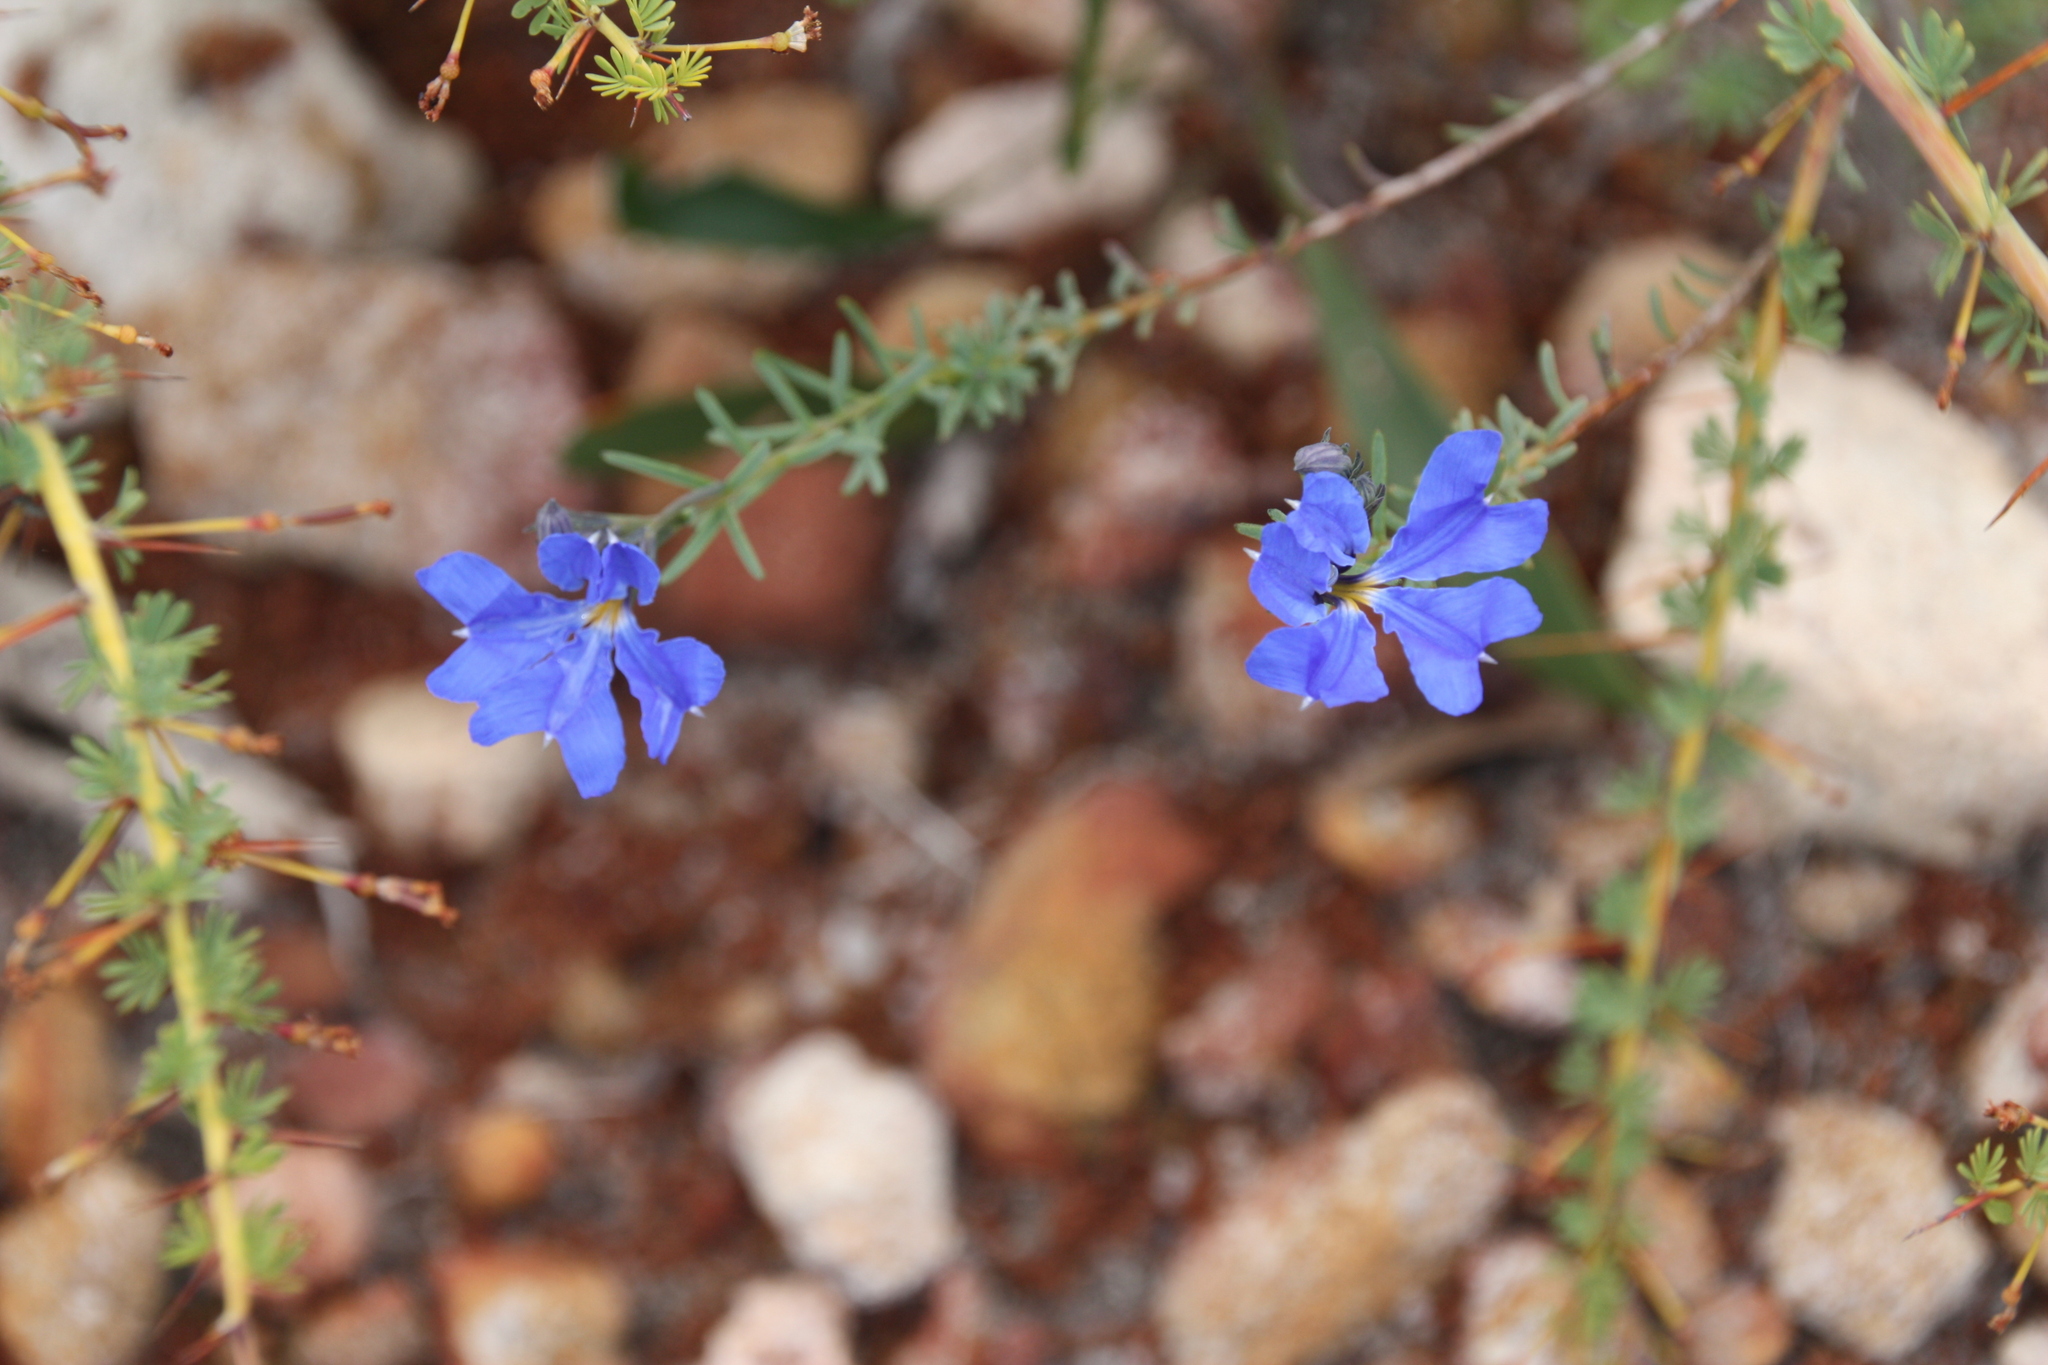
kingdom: Plantae
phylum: Tracheophyta
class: Magnoliopsida
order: Asterales
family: Goodeniaceae
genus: Lechenaultia
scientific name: Lechenaultia biloba
